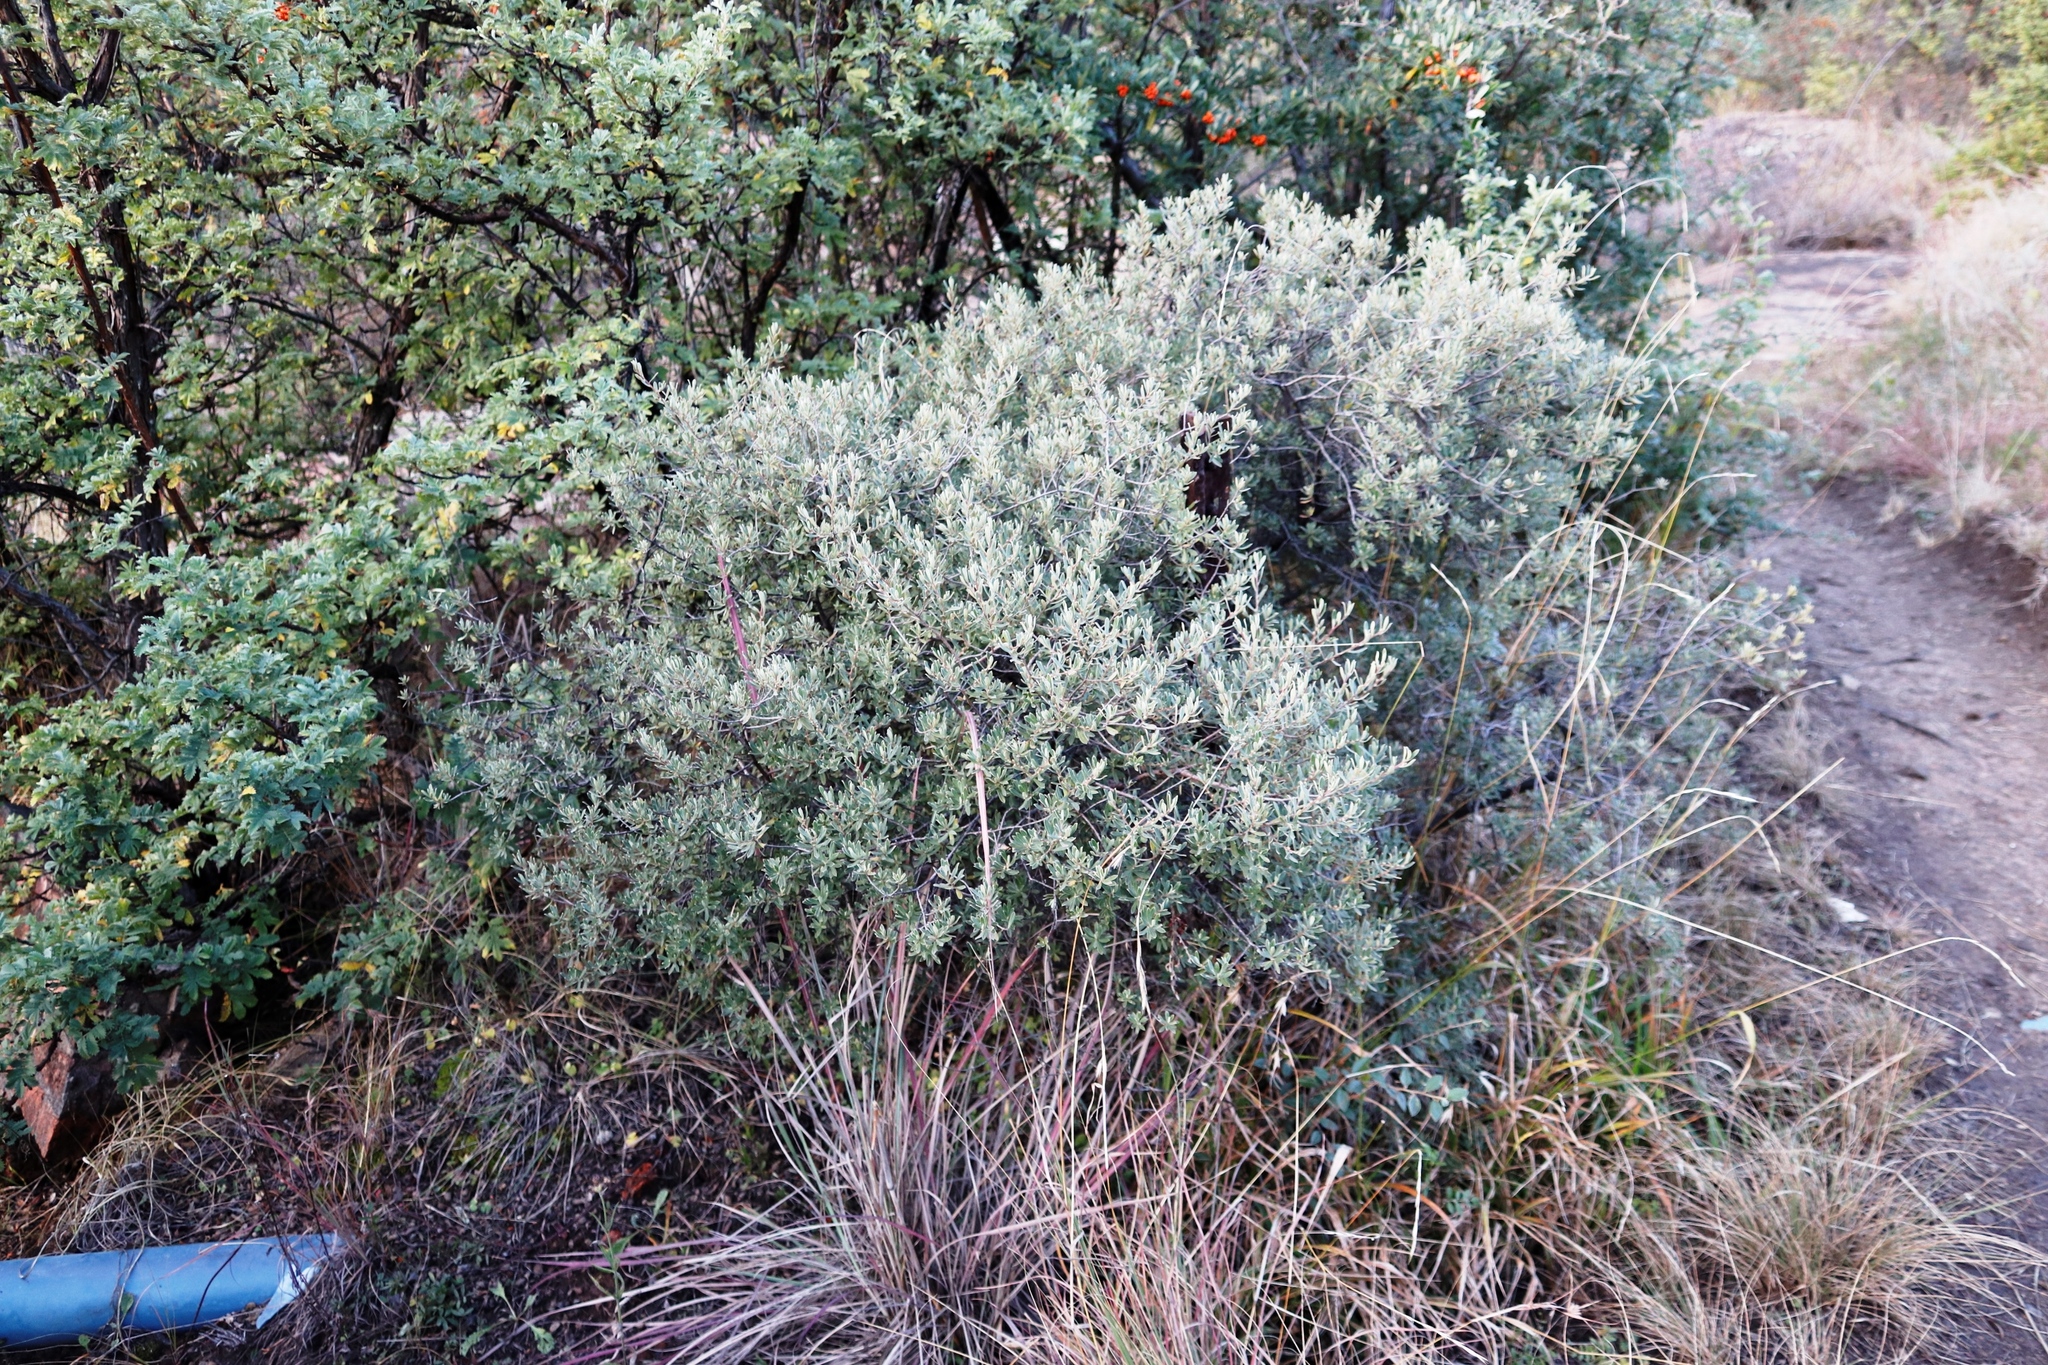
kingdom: Plantae
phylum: Tracheophyta
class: Magnoliopsida
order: Ericales
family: Ebenaceae
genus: Diospyros
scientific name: Diospyros pubescens
